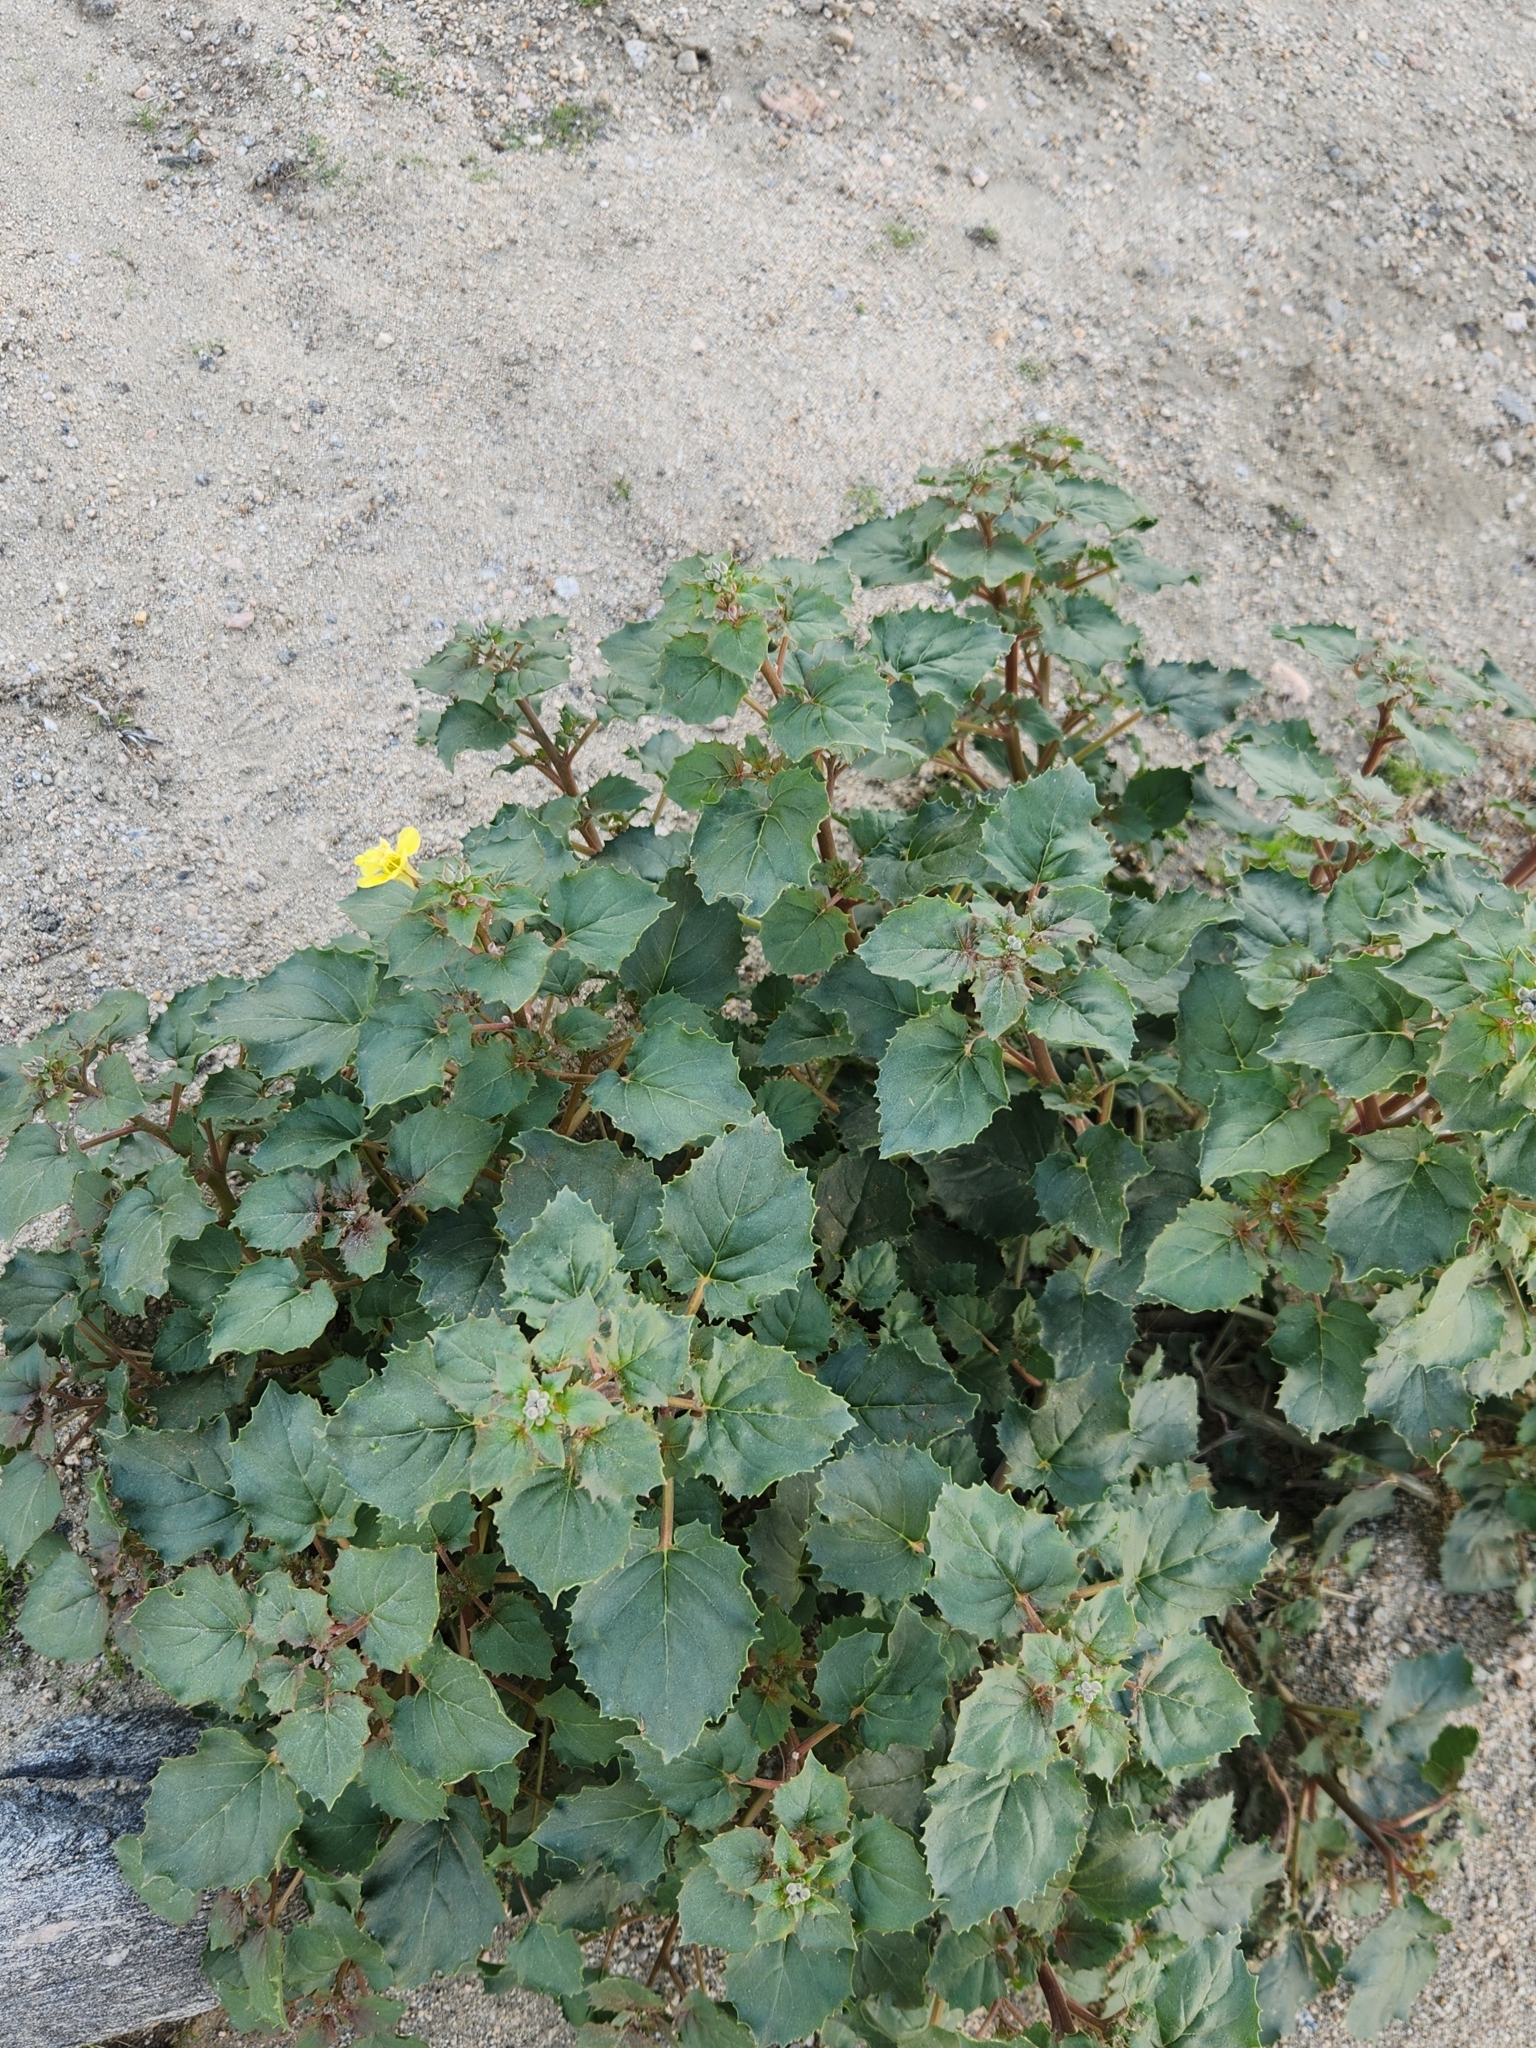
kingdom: Plantae
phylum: Tracheophyta
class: Magnoliopsida
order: Myrtales
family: Onagraceae
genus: Chylismia
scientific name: Chylismia cardiophylla
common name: Heartleaf suncup
